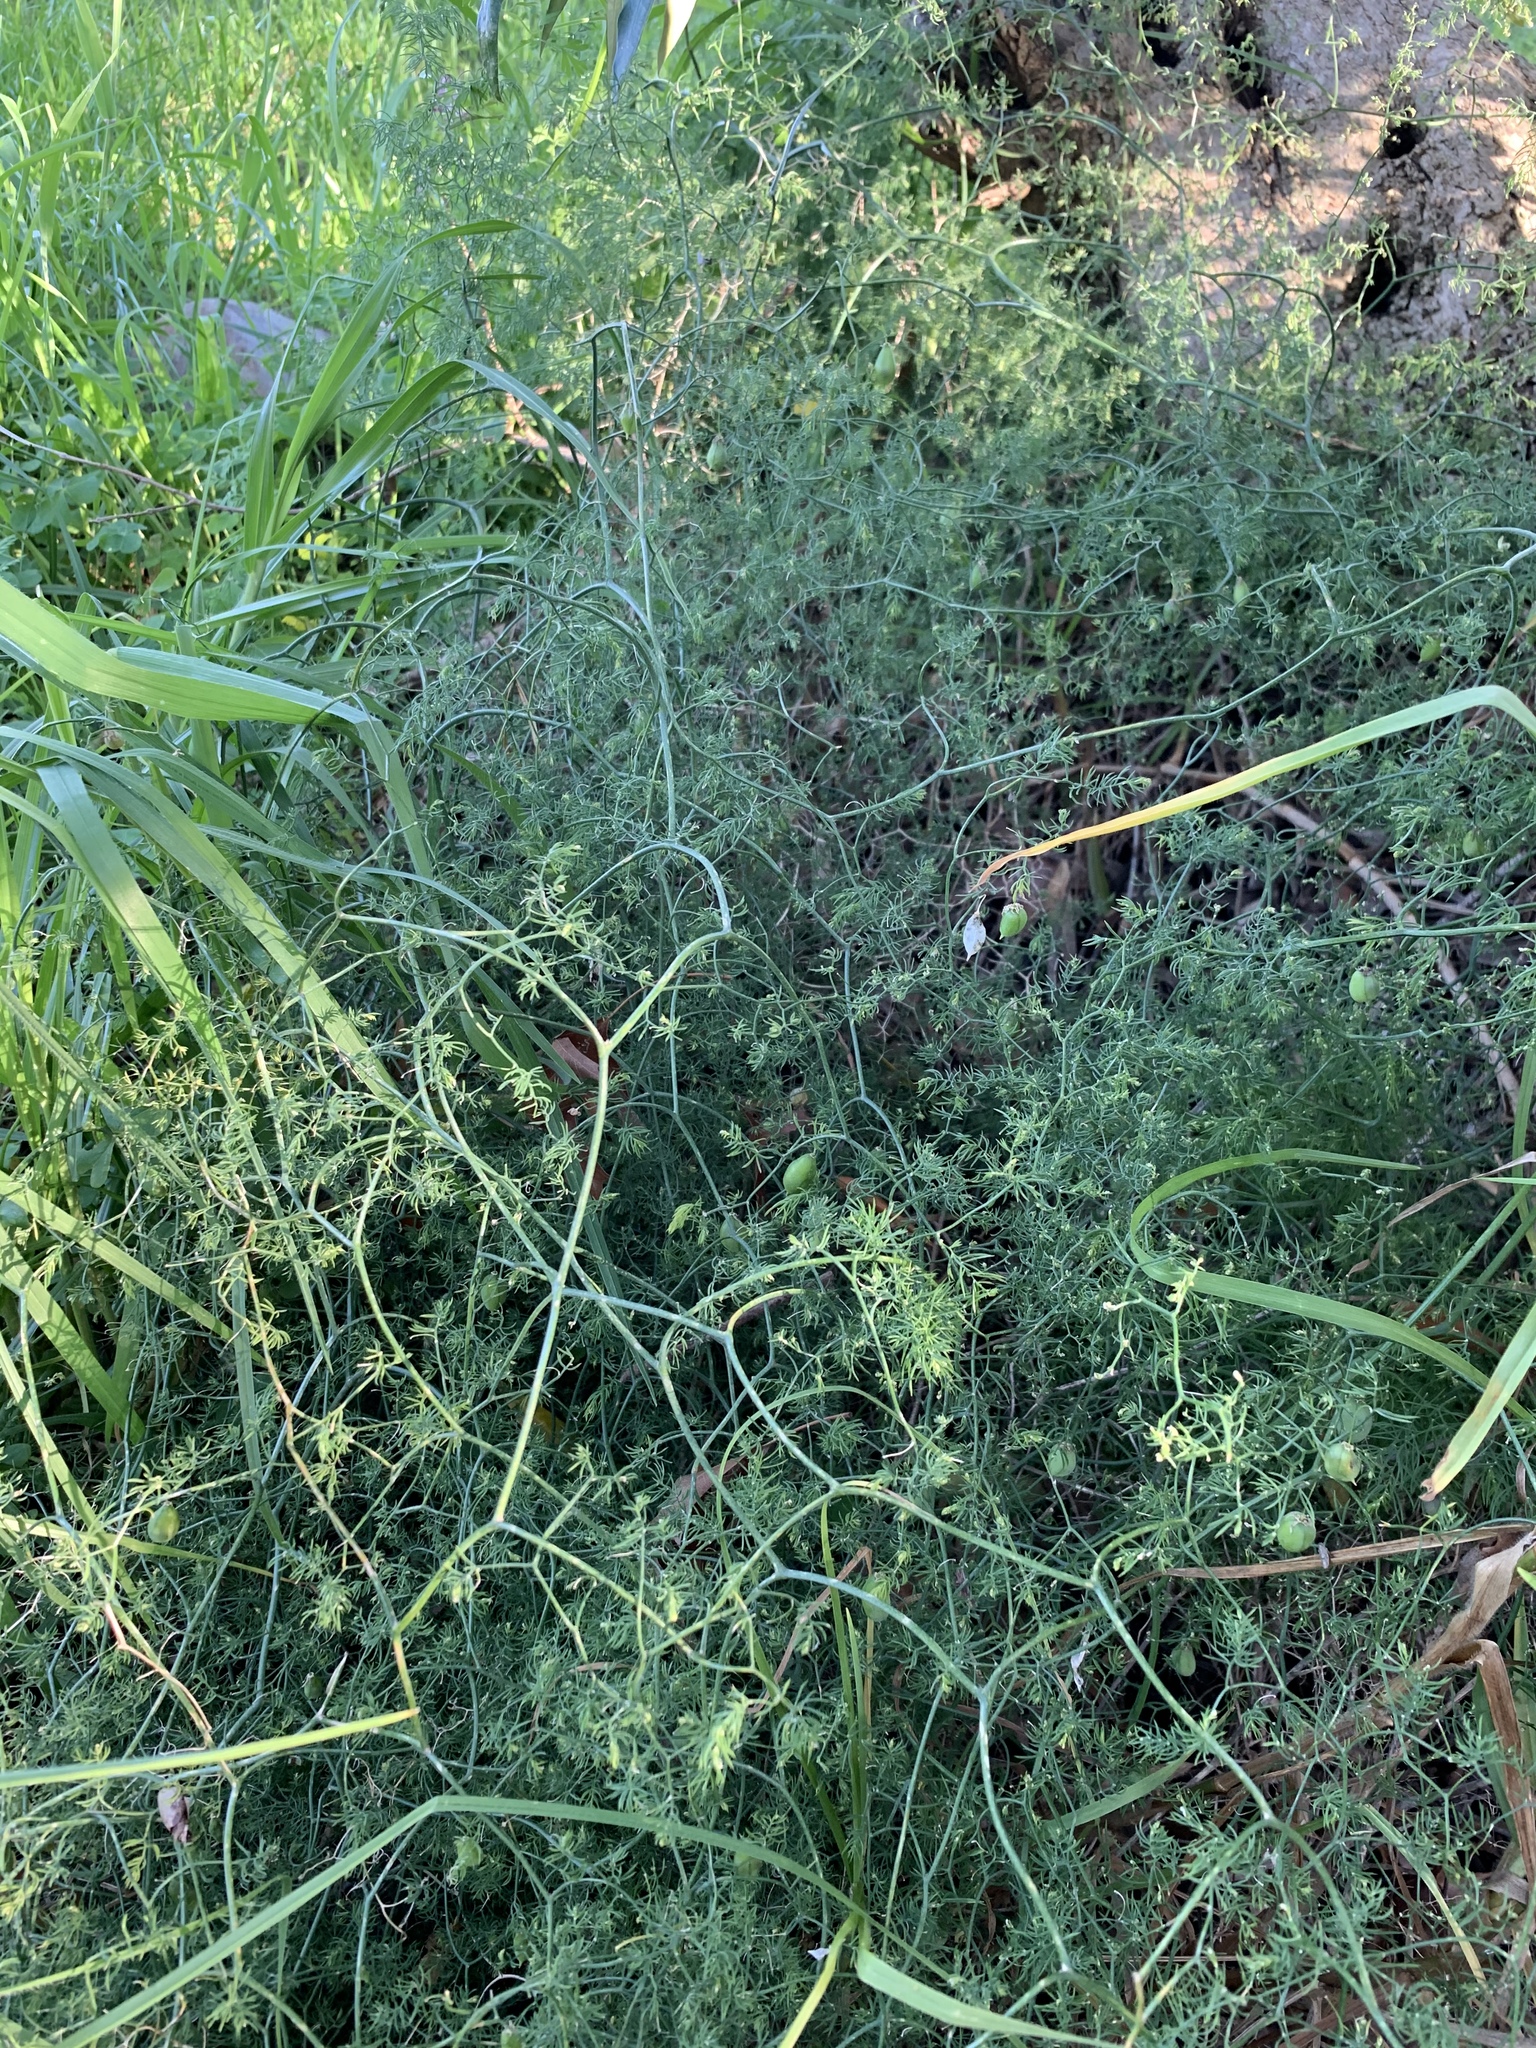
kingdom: Plantae
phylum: Tracheophyta
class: Liliopsida
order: Asparagales
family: Asparagaceae
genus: Asparagus
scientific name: Asparagus declinatus
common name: Bridal-creeper
